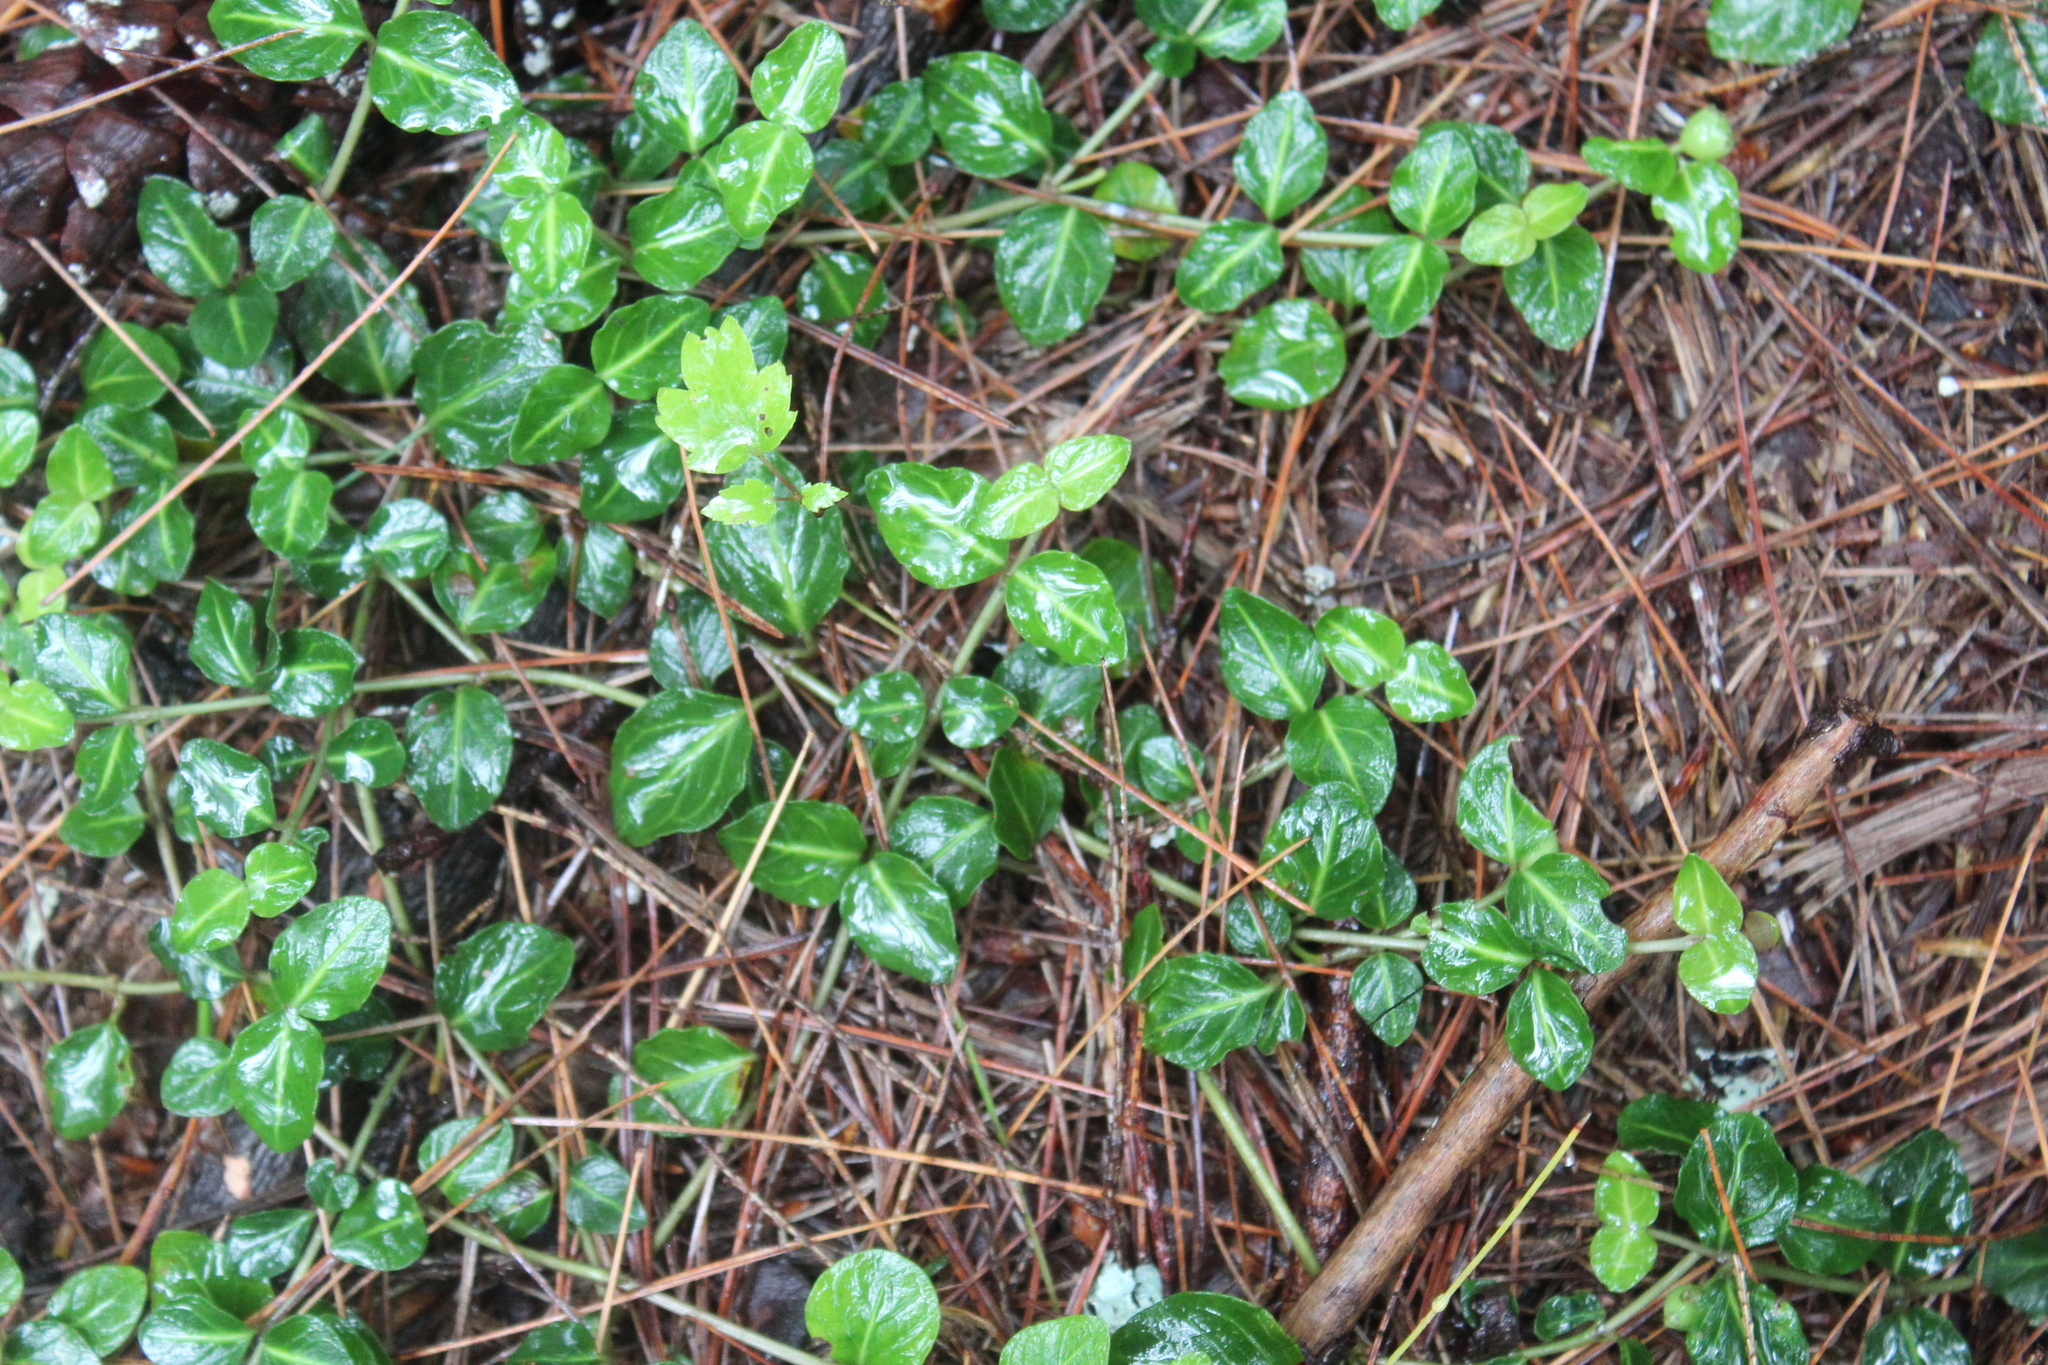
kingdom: Plantae
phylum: Tracheophyta
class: Magnoliopsida
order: Gentianales
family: Rubiaceae
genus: Mitchella
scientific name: Mitchella repens
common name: Partridge-berry
